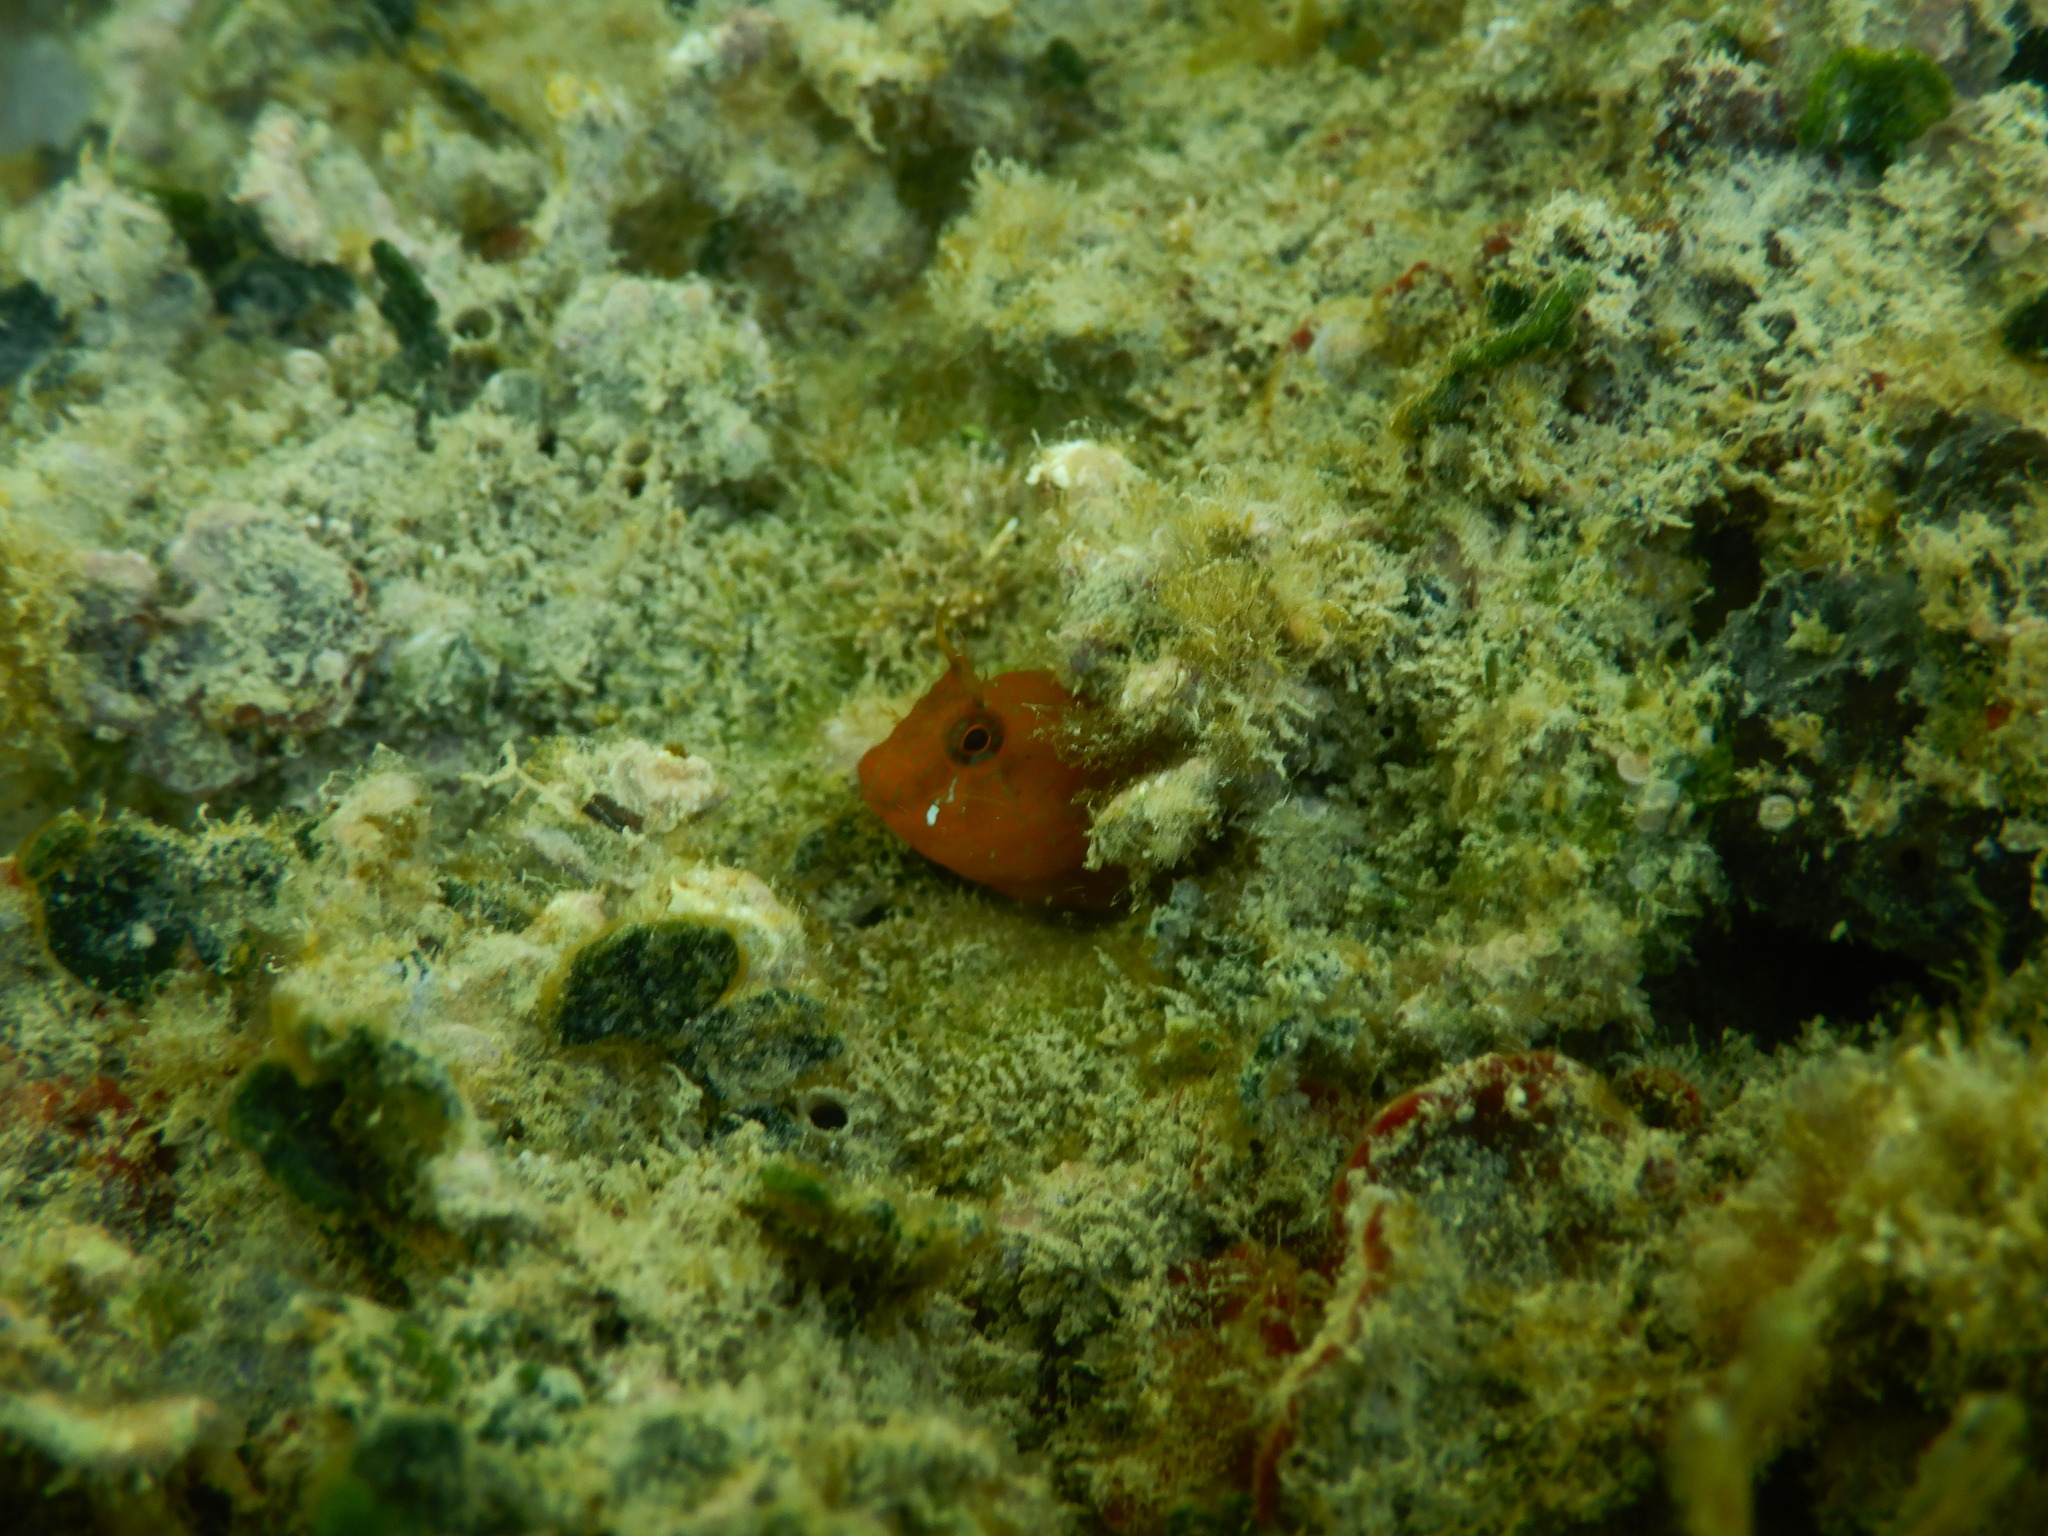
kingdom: Animalia
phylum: Chordata
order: Perciformes
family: Blenniidae
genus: Parablennius
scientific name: Parablennius zvonimiri
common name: Red blenny
